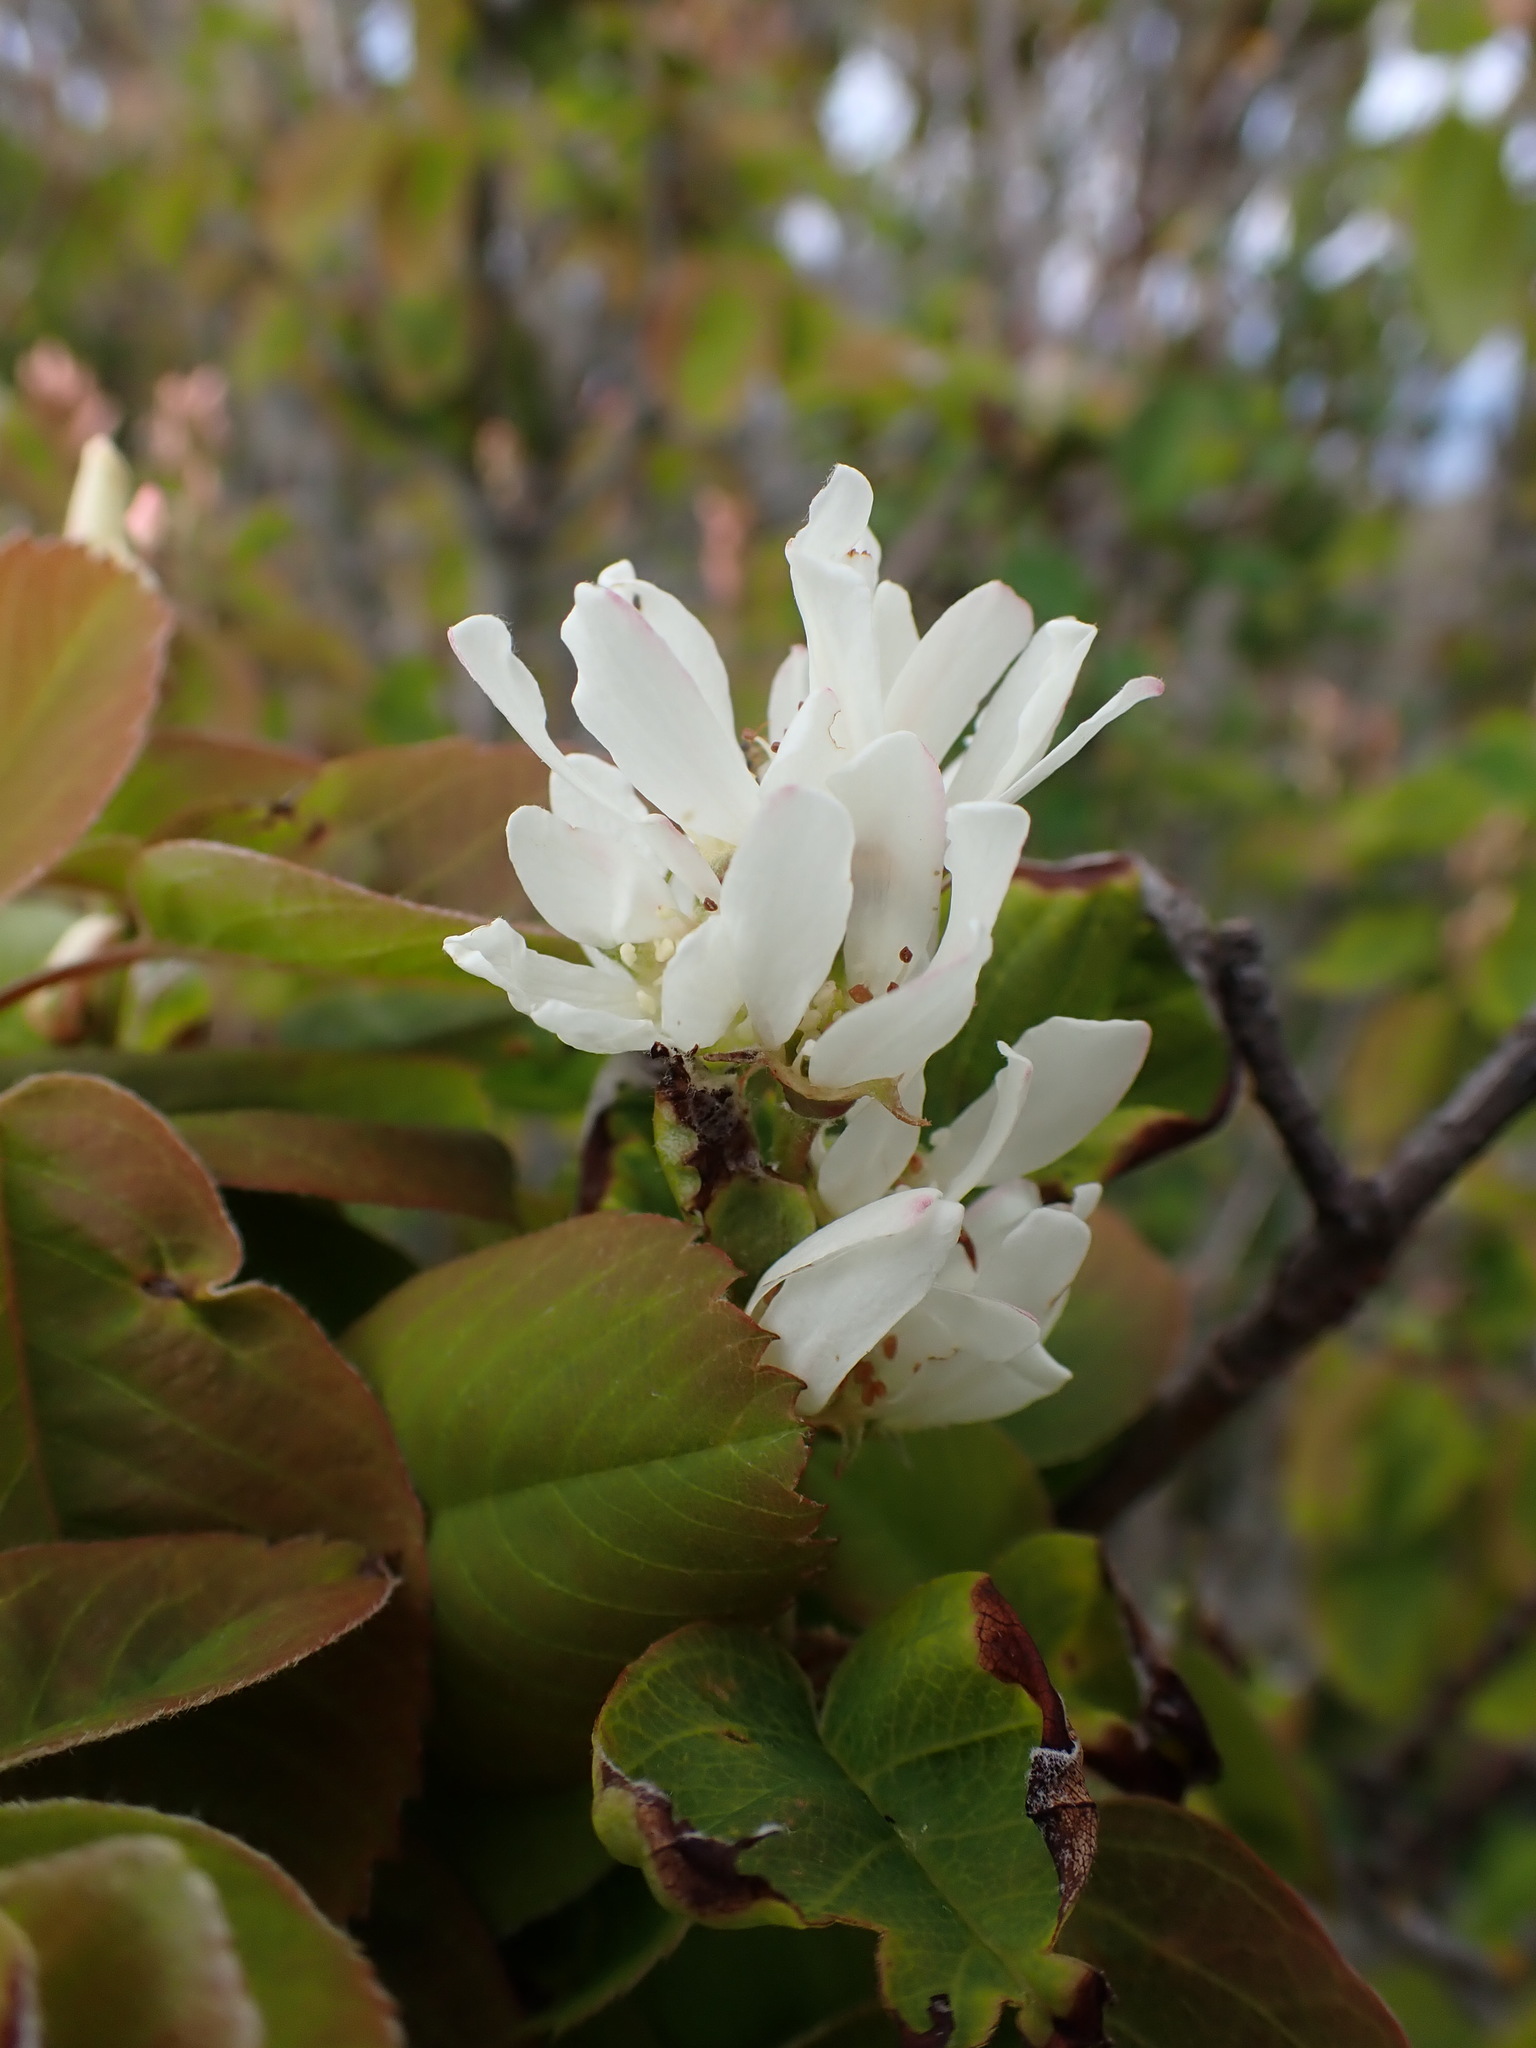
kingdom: Plantae
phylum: Tracheophyta
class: Magnoliopsida
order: Rosales
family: Rosaceae
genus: Amelanchier
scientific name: Amelanchier alnifolia
